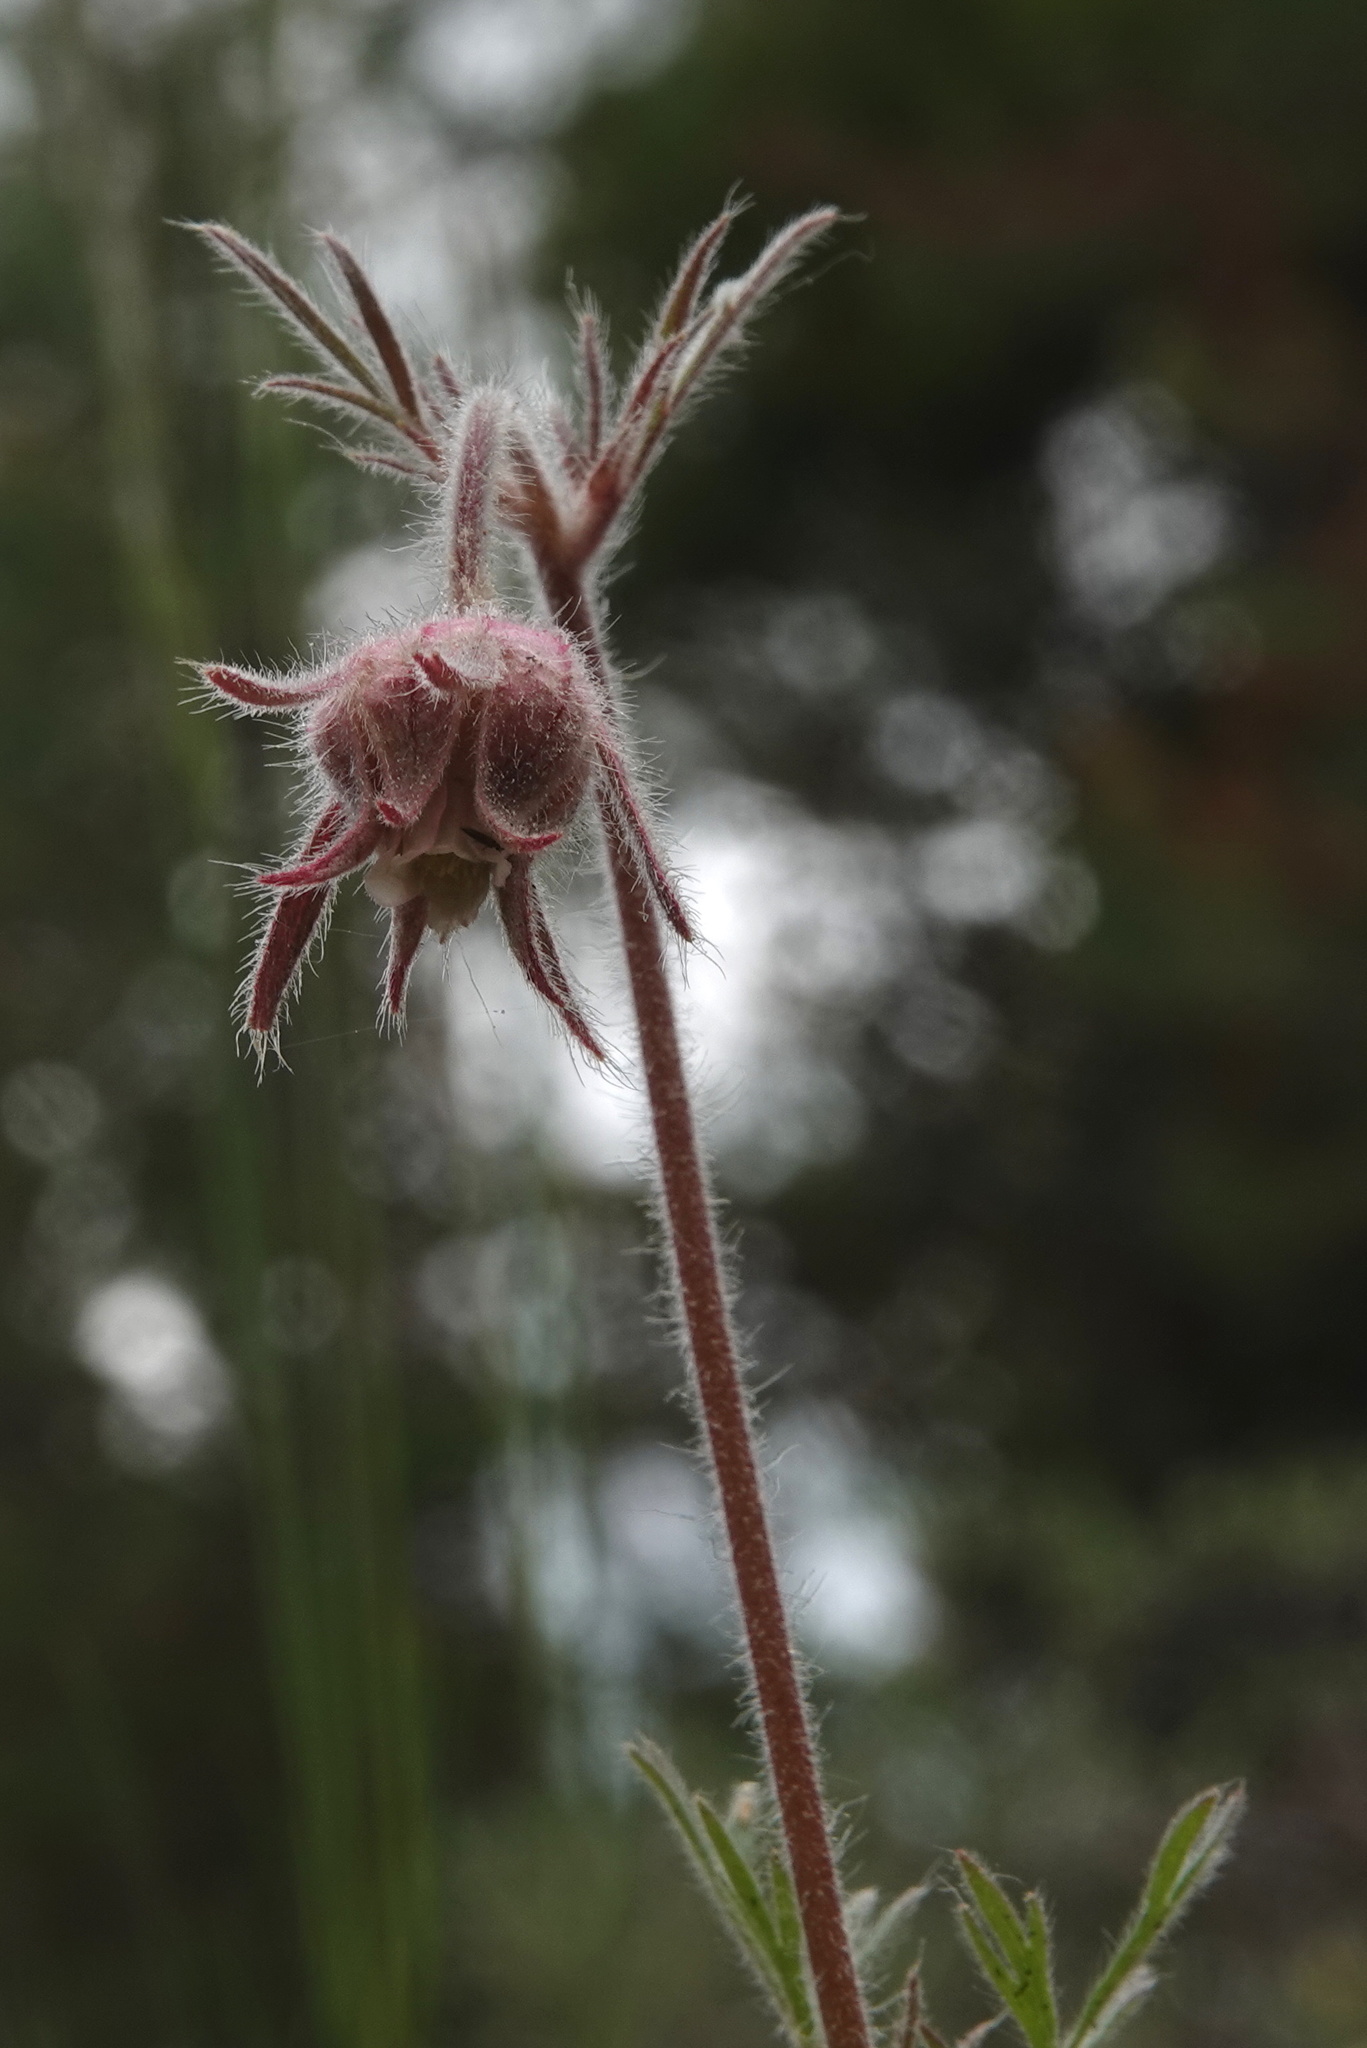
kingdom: Plantae
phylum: Tracheophyta
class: Magnoliopsida
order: Rosales
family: Rosaceae
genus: Geum
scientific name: Geum triflorum
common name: Old man's whiskers
